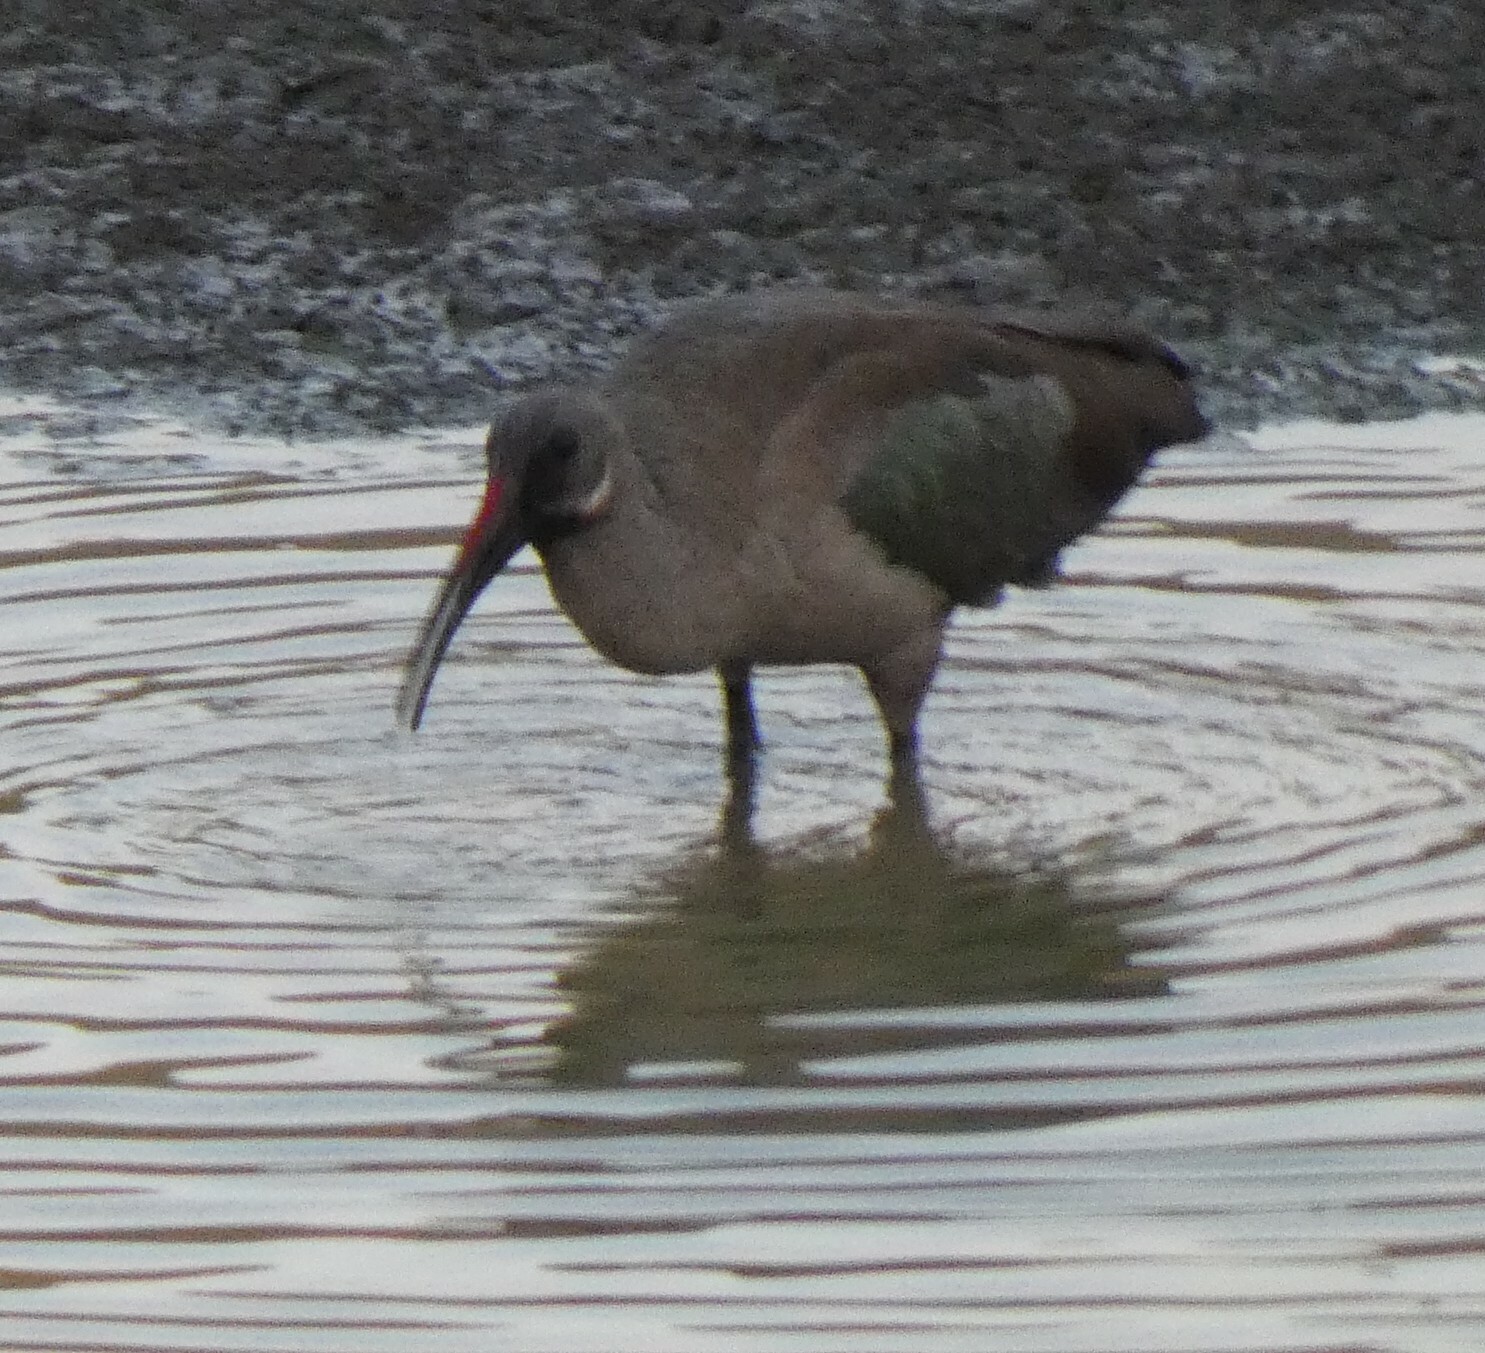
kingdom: Animalia
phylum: Chordata
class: Aves
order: Pelecaniformes
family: Threskiornithidae
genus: Bostrychia
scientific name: Bostrychia hagedash
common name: Hadada ibis
